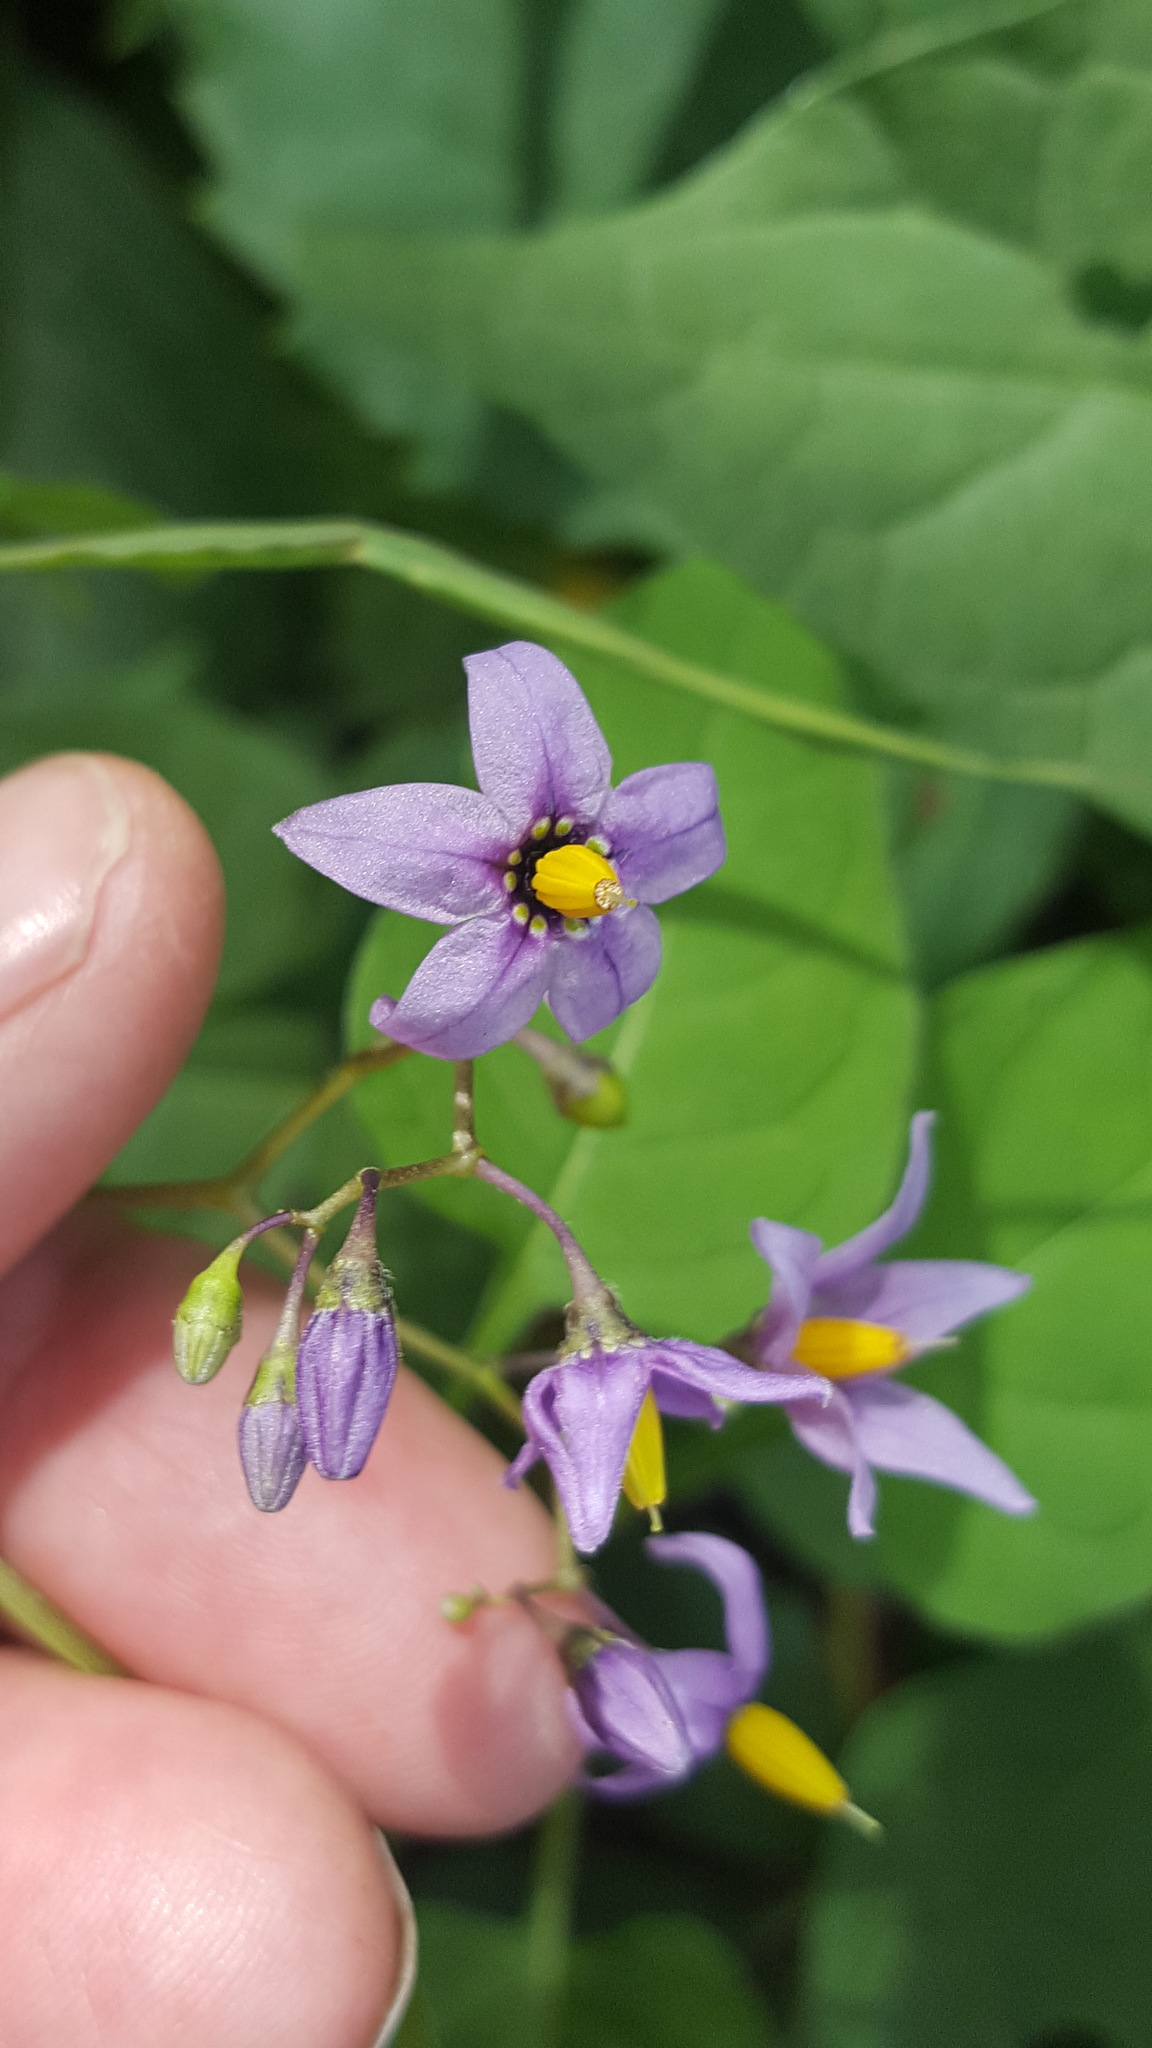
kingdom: Plantae
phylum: Tracheophyta
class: Magnoliopsida
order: Solanales
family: Solanaceae
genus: Solanum
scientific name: Solanum dulcamara
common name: Climbing nightshade
